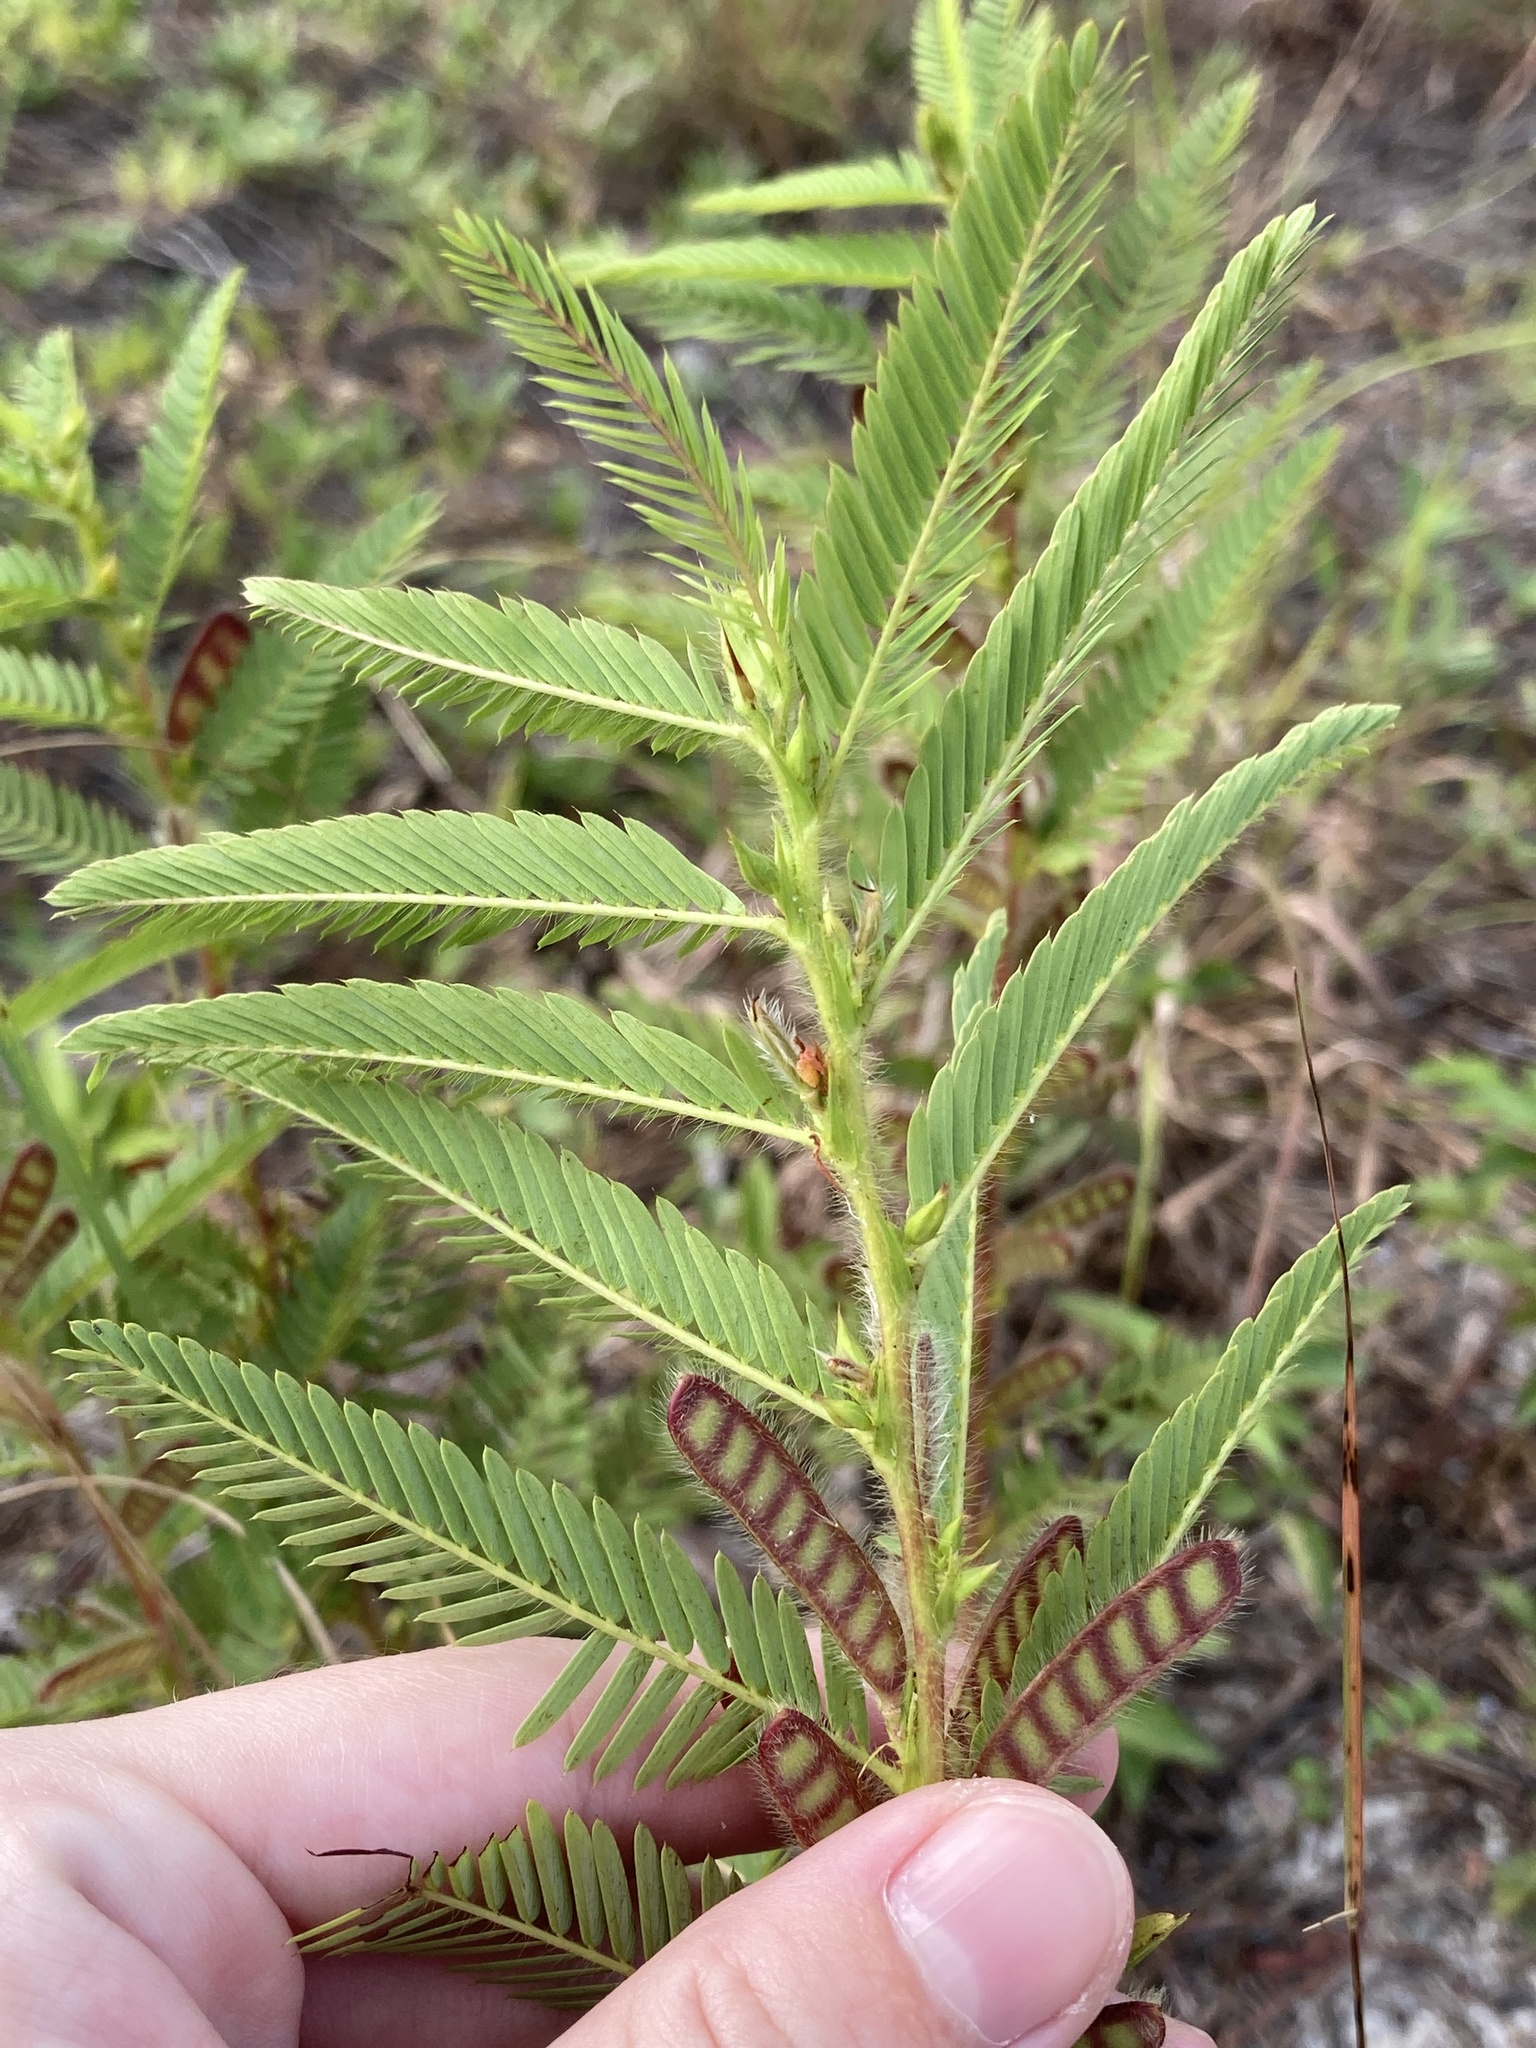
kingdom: Plantae
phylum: Tracheophyta
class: Magnoliopsida
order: Fabales
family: Fabaceae
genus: Chamaecrista
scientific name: Chamaecrista nictitans
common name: Sensitive cassia
